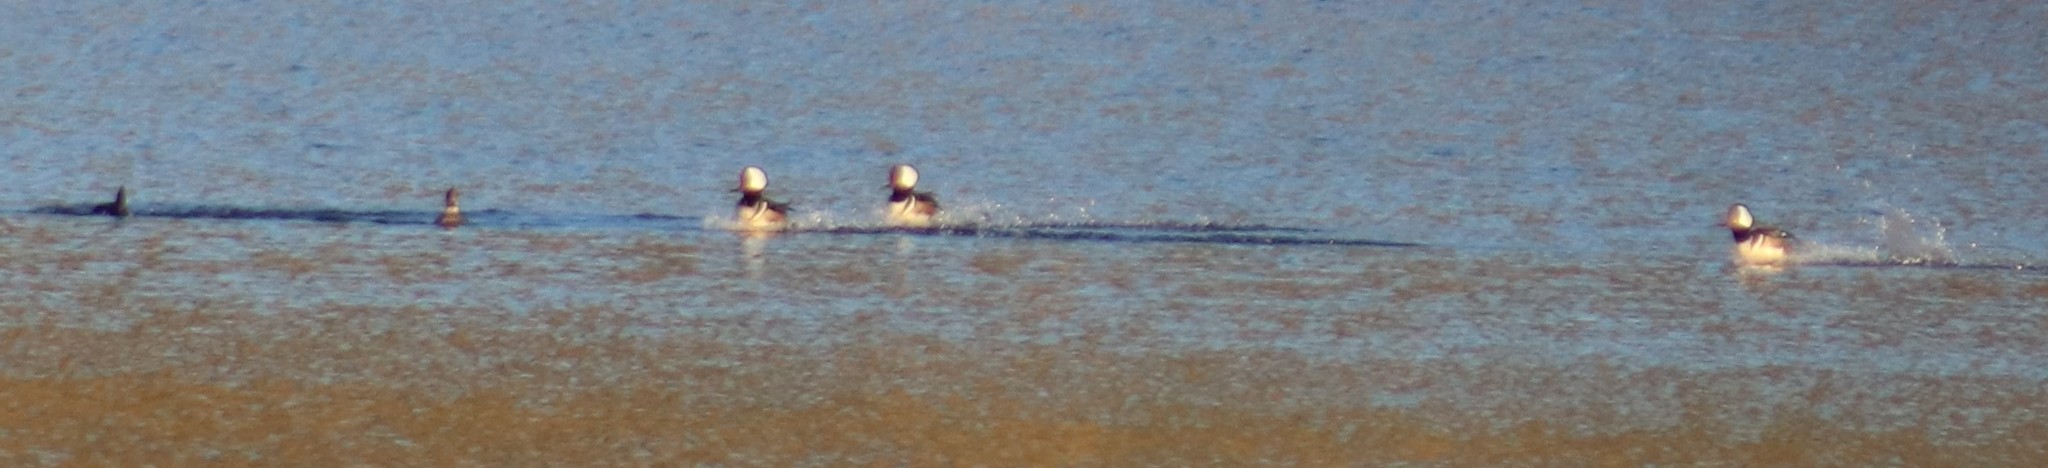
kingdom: Animalia
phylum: Chordata
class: Aves
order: Anseriformes
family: Anatidae
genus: Lophodytes
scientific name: Lophodytes cucullatus
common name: Hooded merganser
